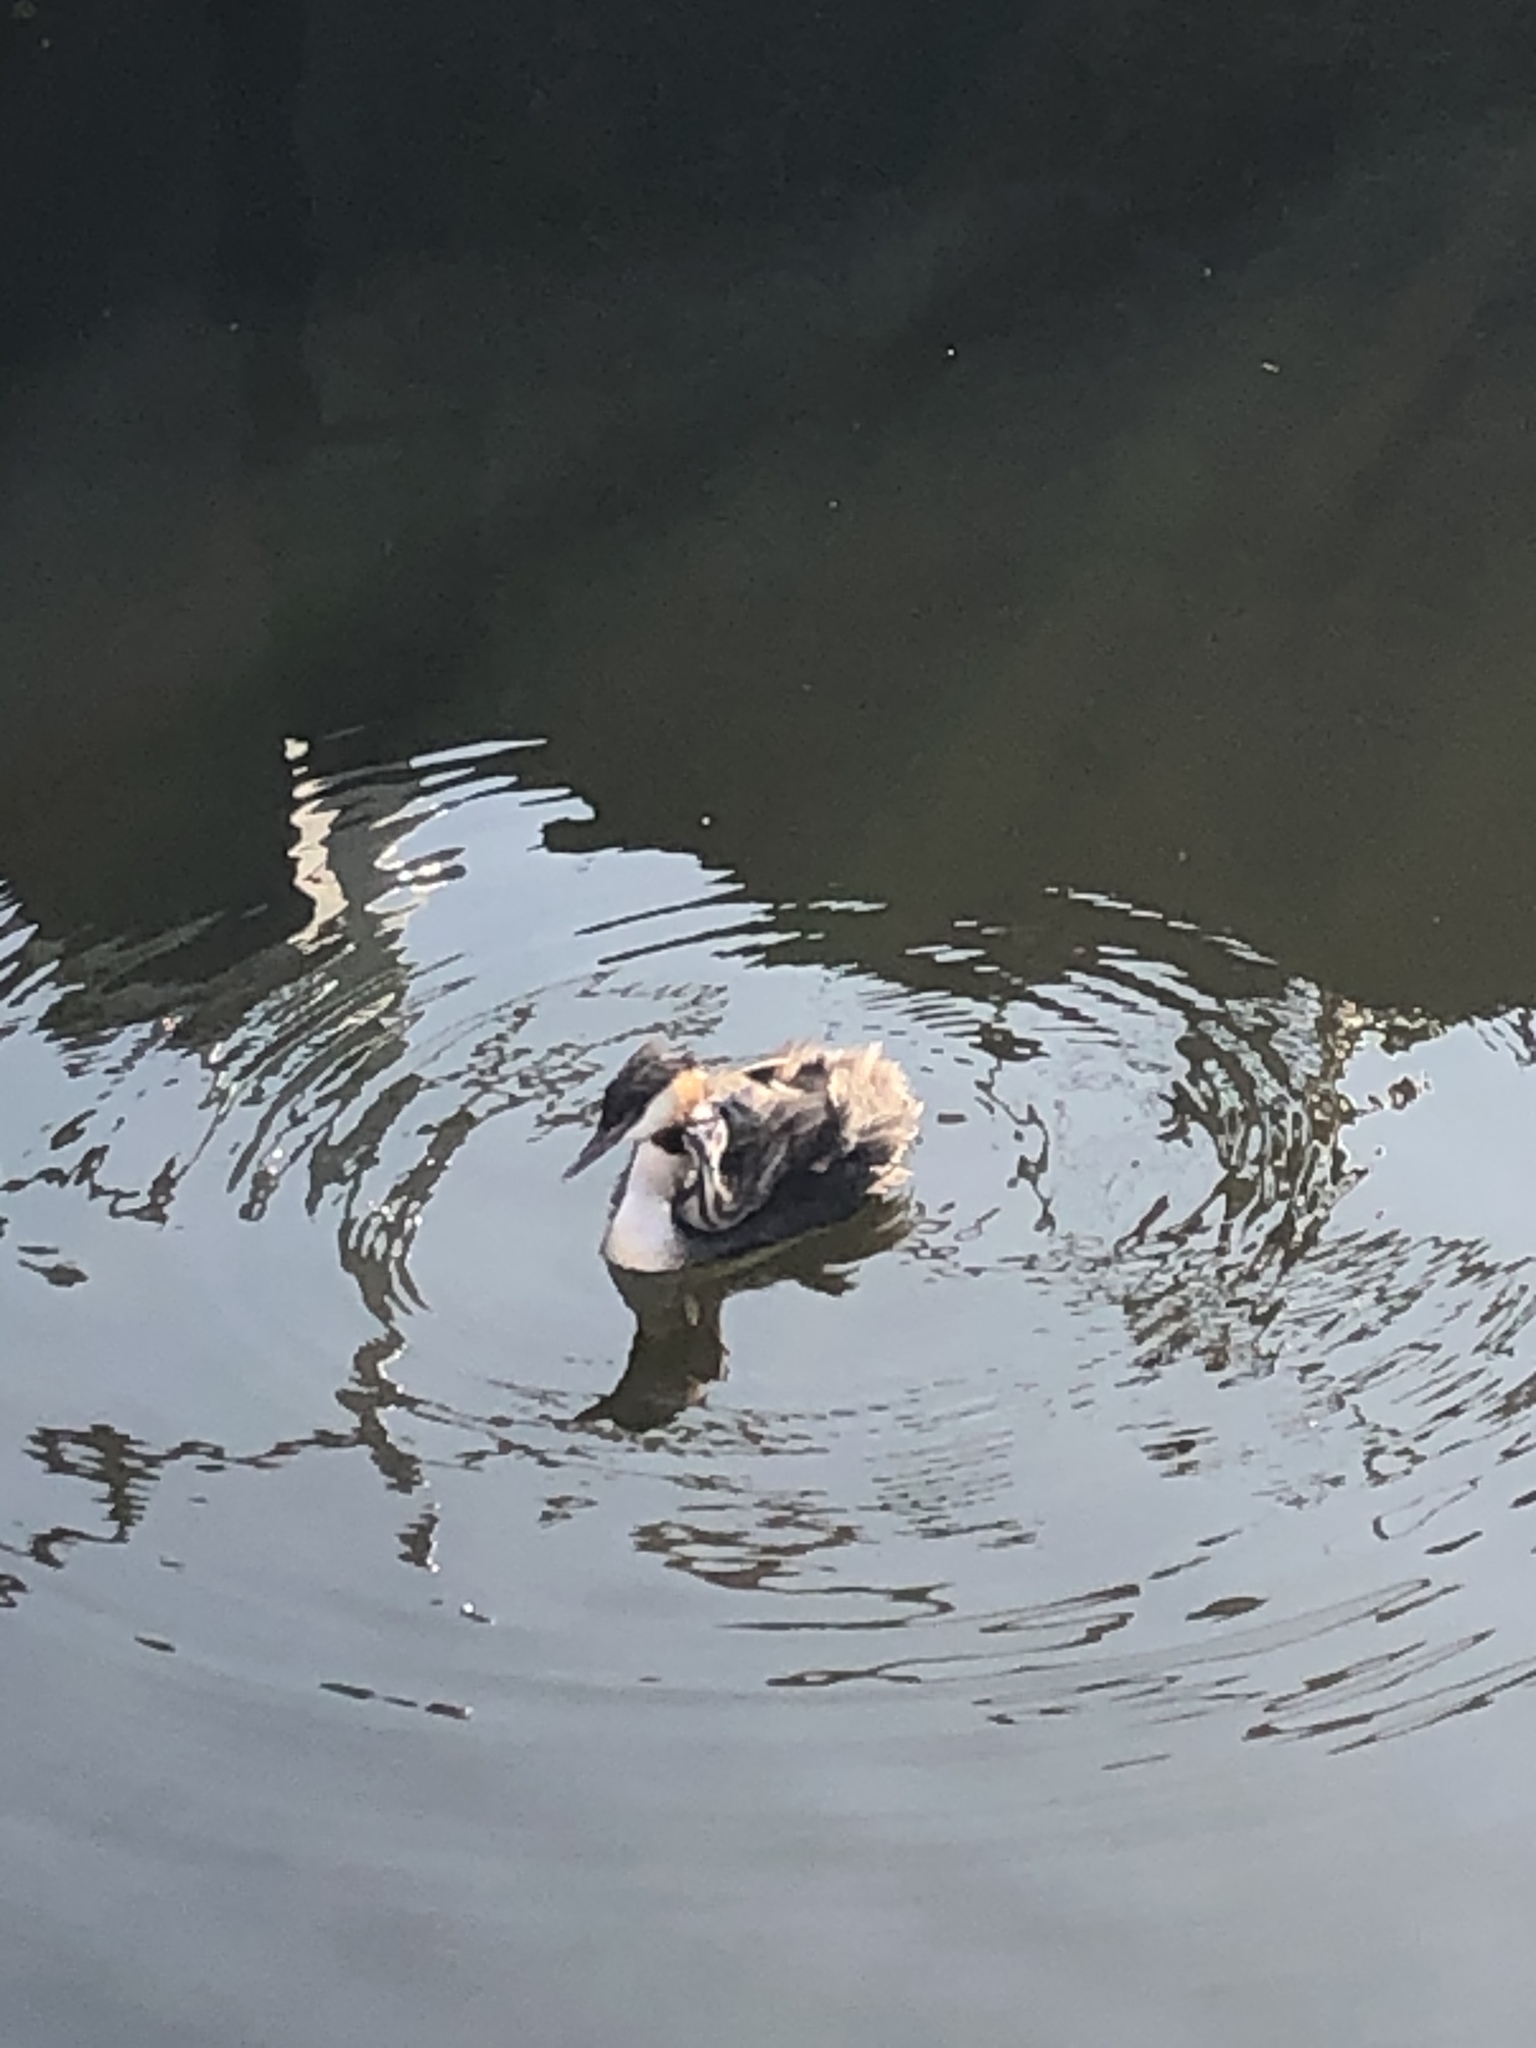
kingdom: Animalia
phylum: Chordata
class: Aves
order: Podicipediformes
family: Podicipedidae
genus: Podiceps
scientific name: Podiceps cristatus
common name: Great crested grebe
